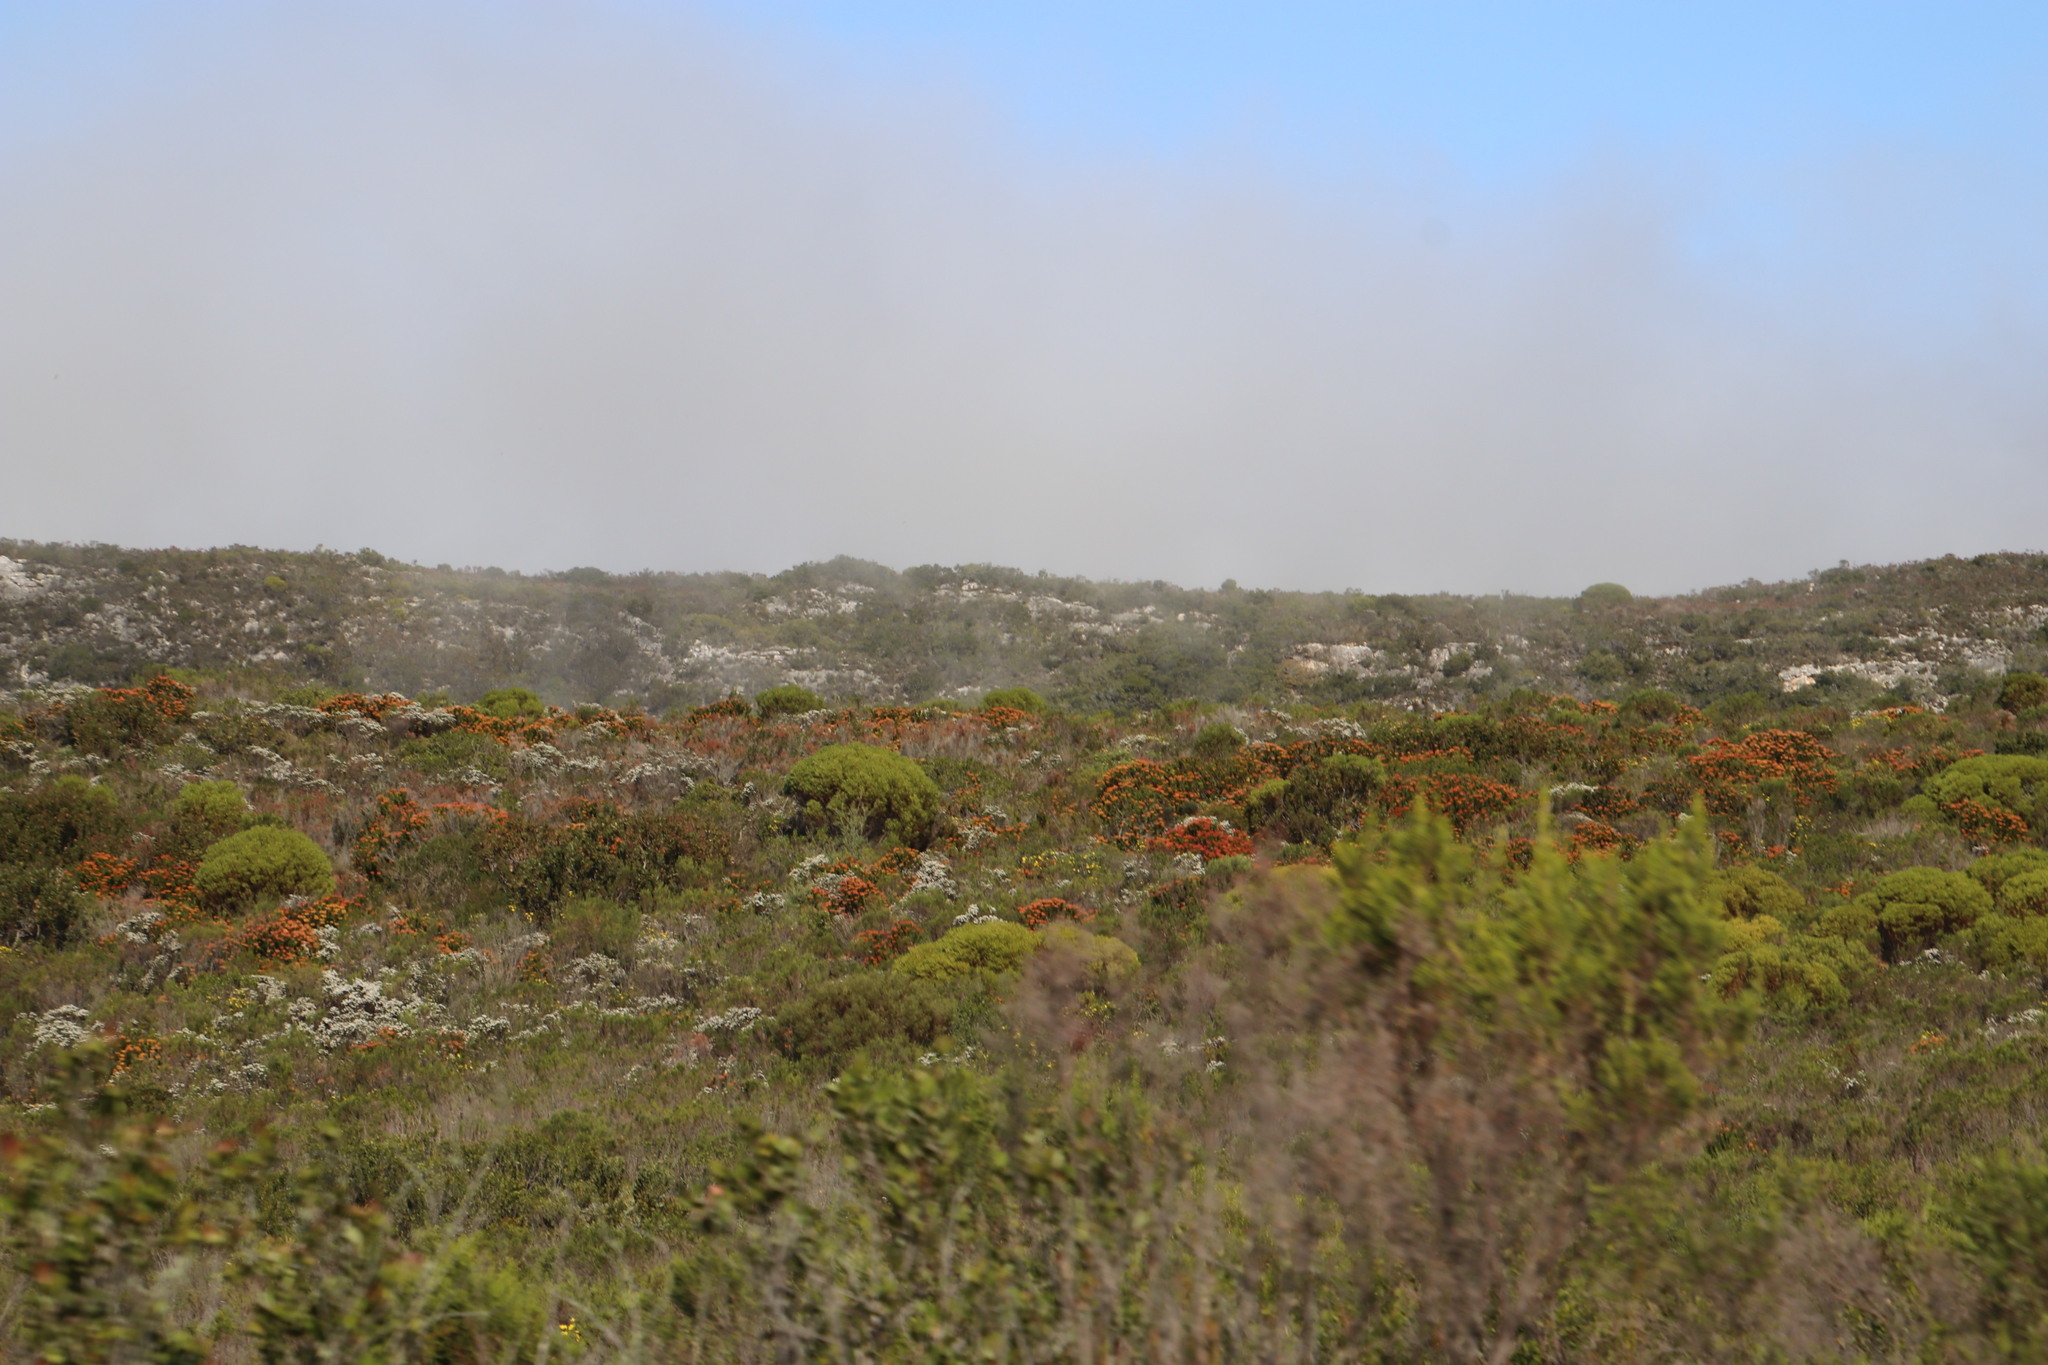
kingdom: Plantae
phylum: Tracheophyta
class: Magnoliopsida
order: Proteales
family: Proteaceae
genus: Leucospermum
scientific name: Leucospermum patersonii
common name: False tree pincushion
